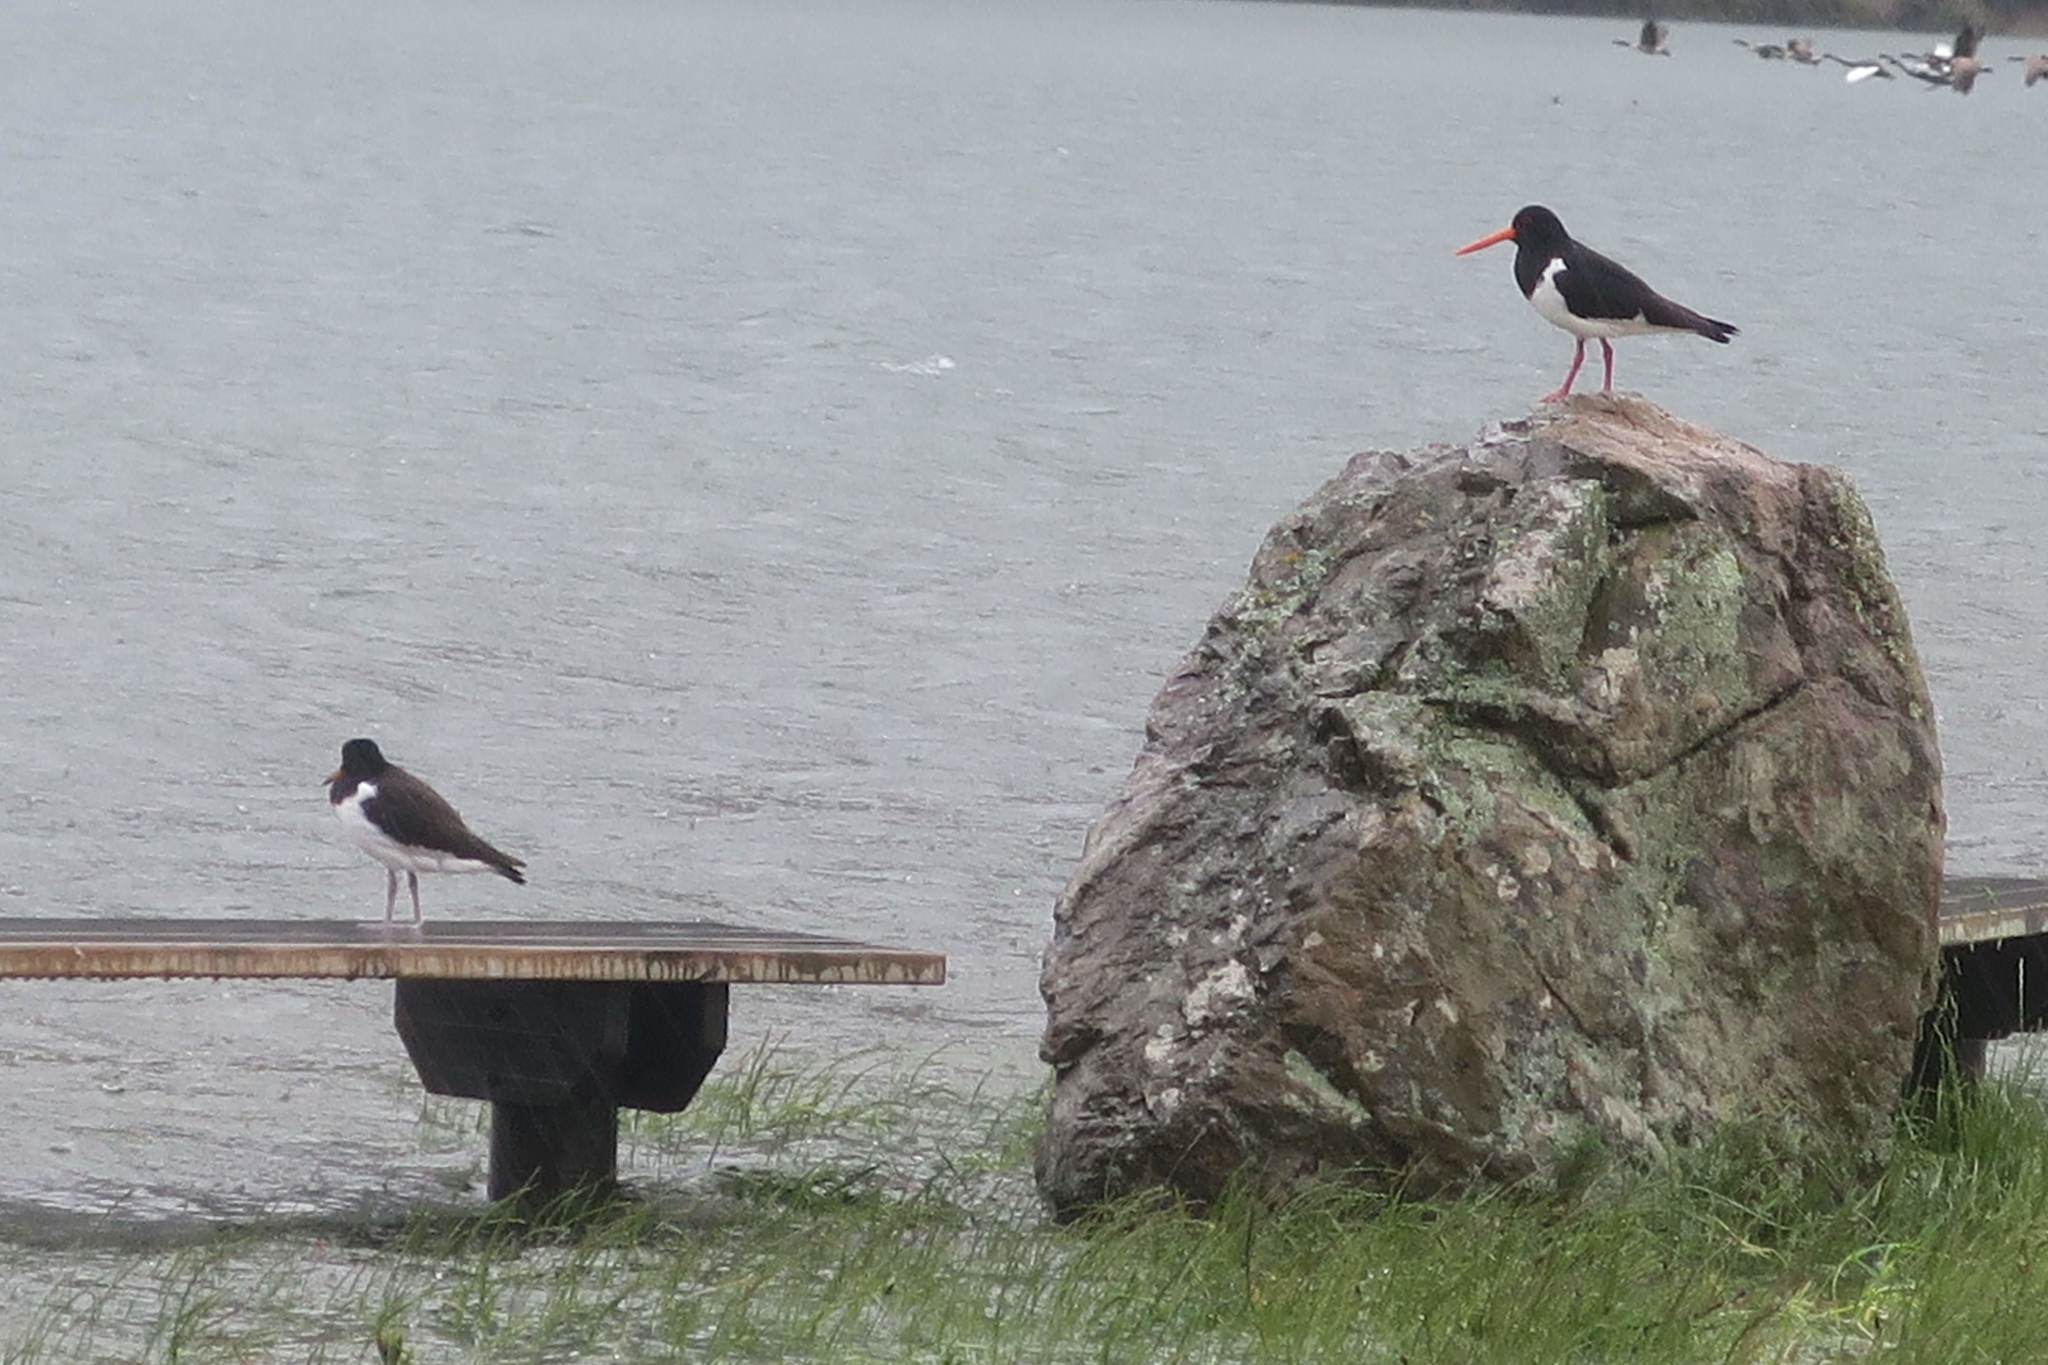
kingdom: Animalia
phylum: Chordata
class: Aves
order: Charadriiformes
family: Haematopodidae
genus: Haematopus
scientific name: Haematopus finschi
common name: South island oystercatcher
